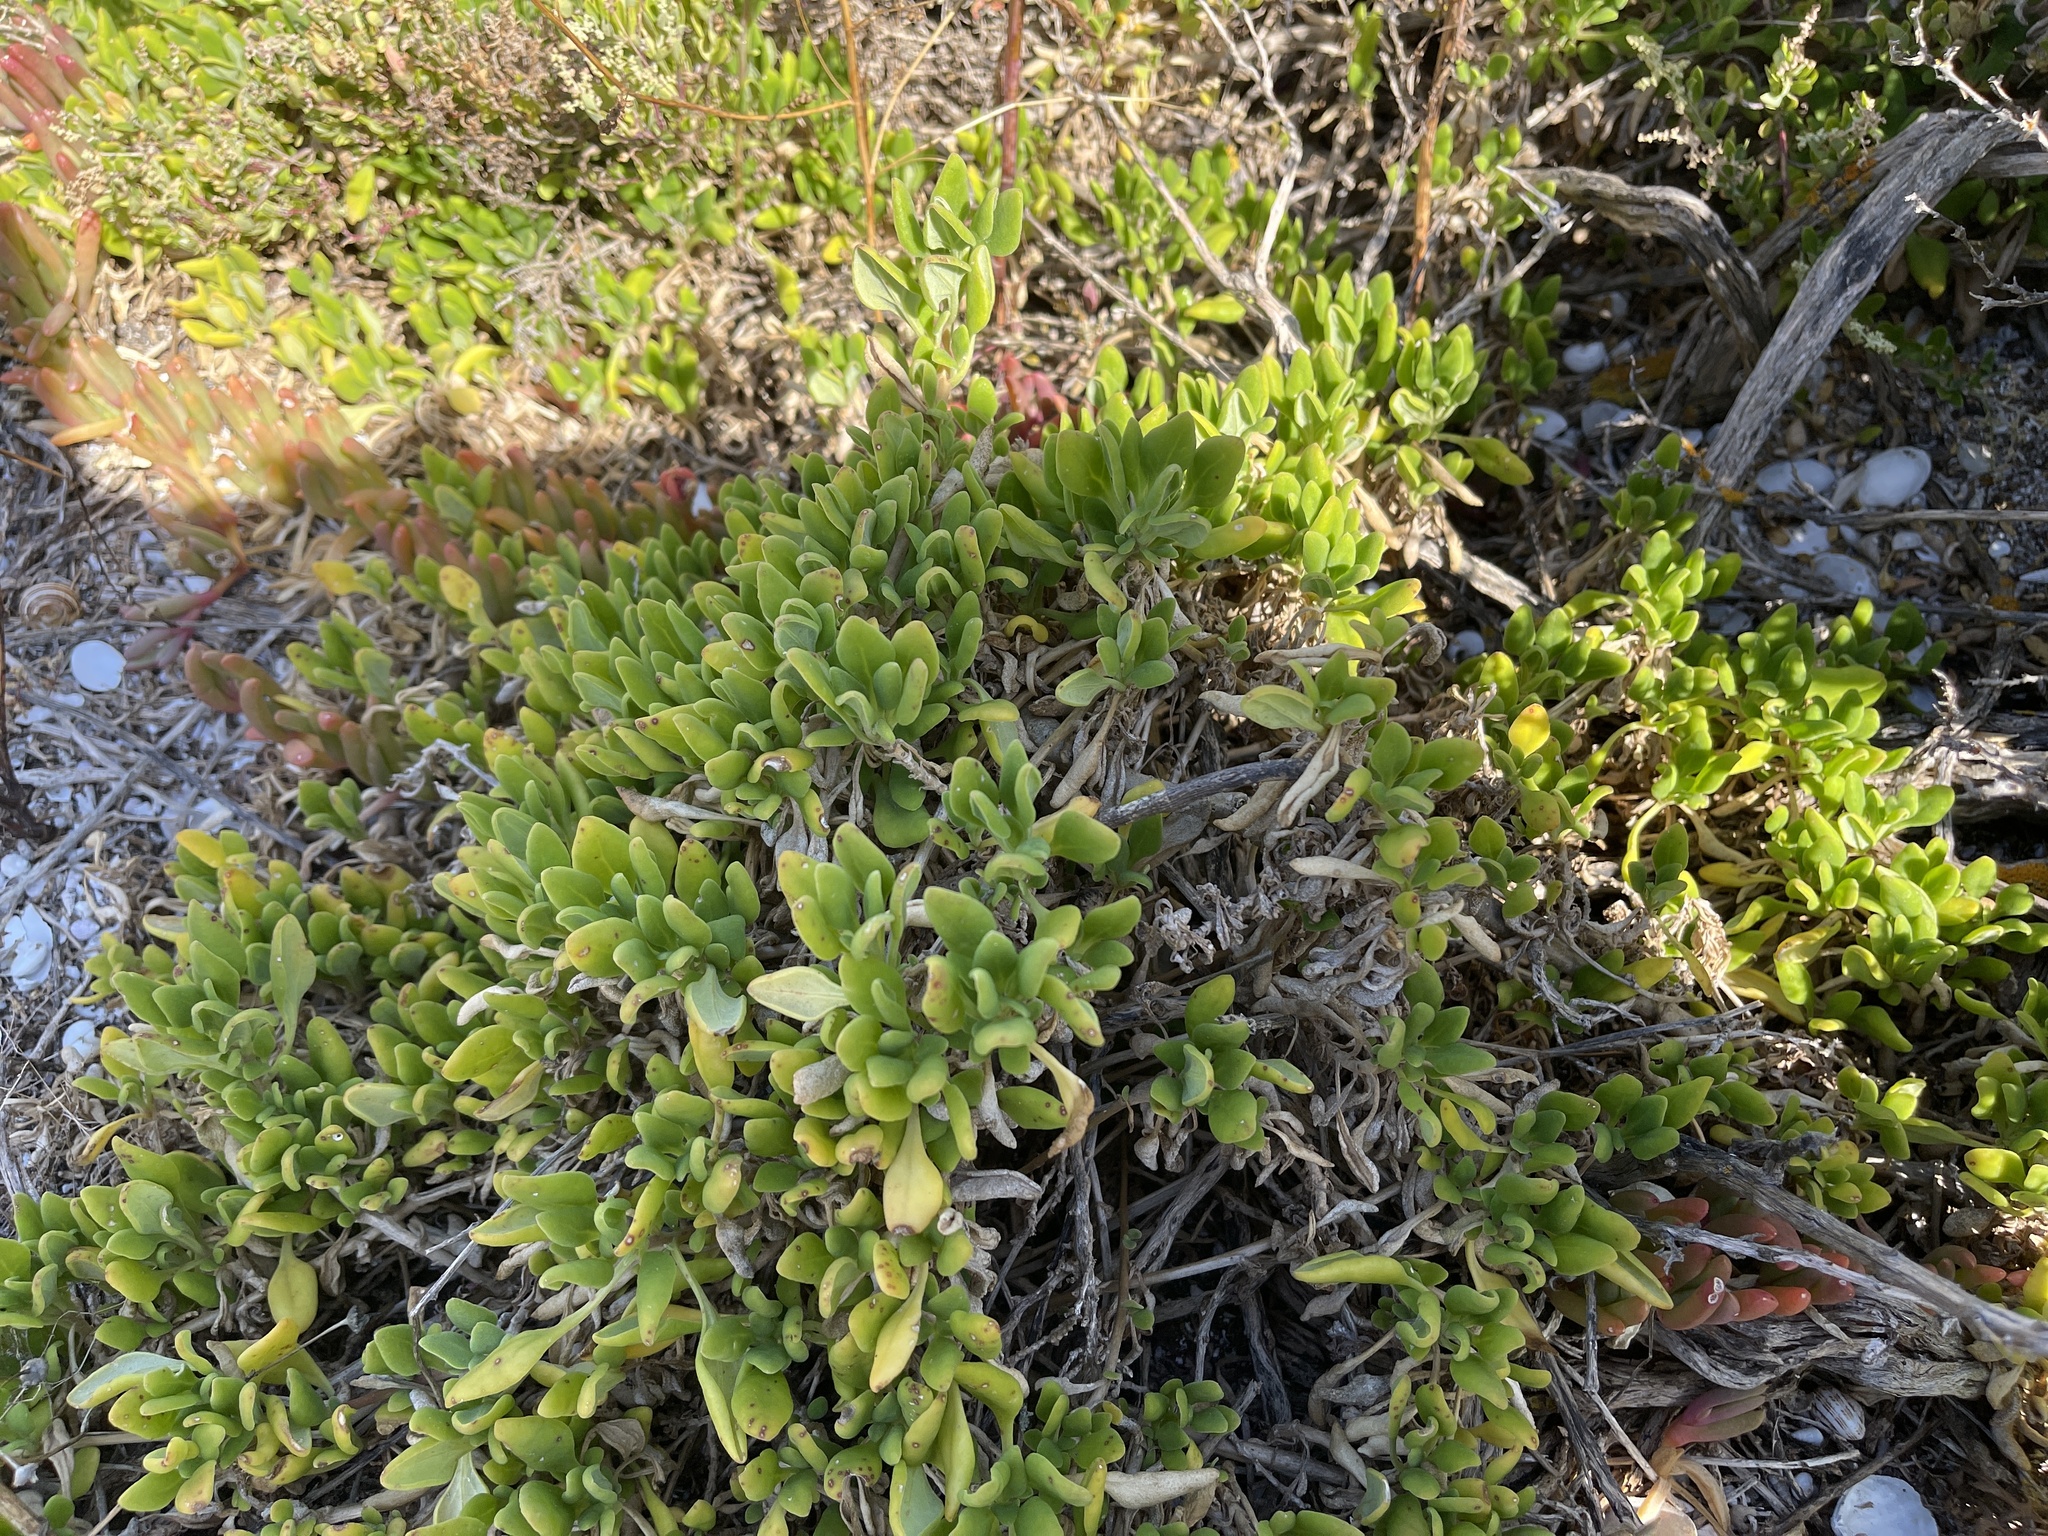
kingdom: Plantae
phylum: Tracheophyta
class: Magnoliopsida
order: Caryophyllales
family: Aizoaceae
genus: Tetragonia
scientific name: Tetragonia implexicoma
